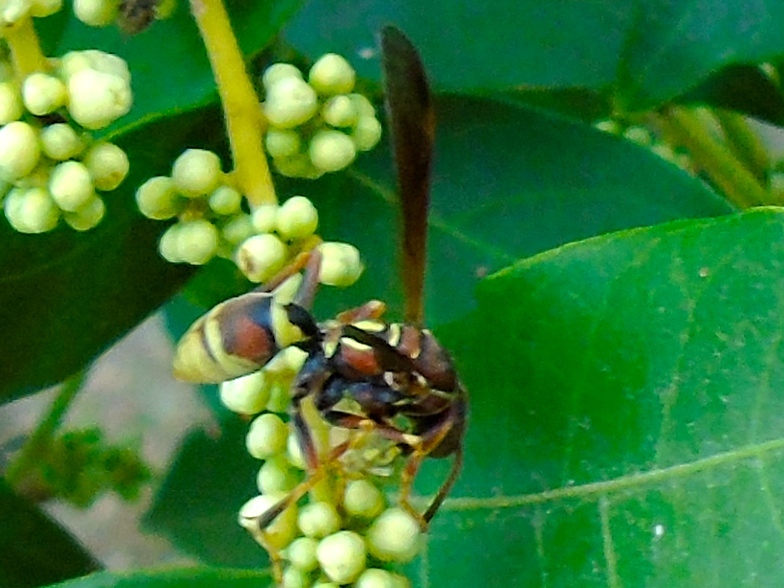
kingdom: Animalia
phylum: Arthropoda
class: Insecta
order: Hymenoptera
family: Eumenidae
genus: Polistes
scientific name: Polistes dorsalis
